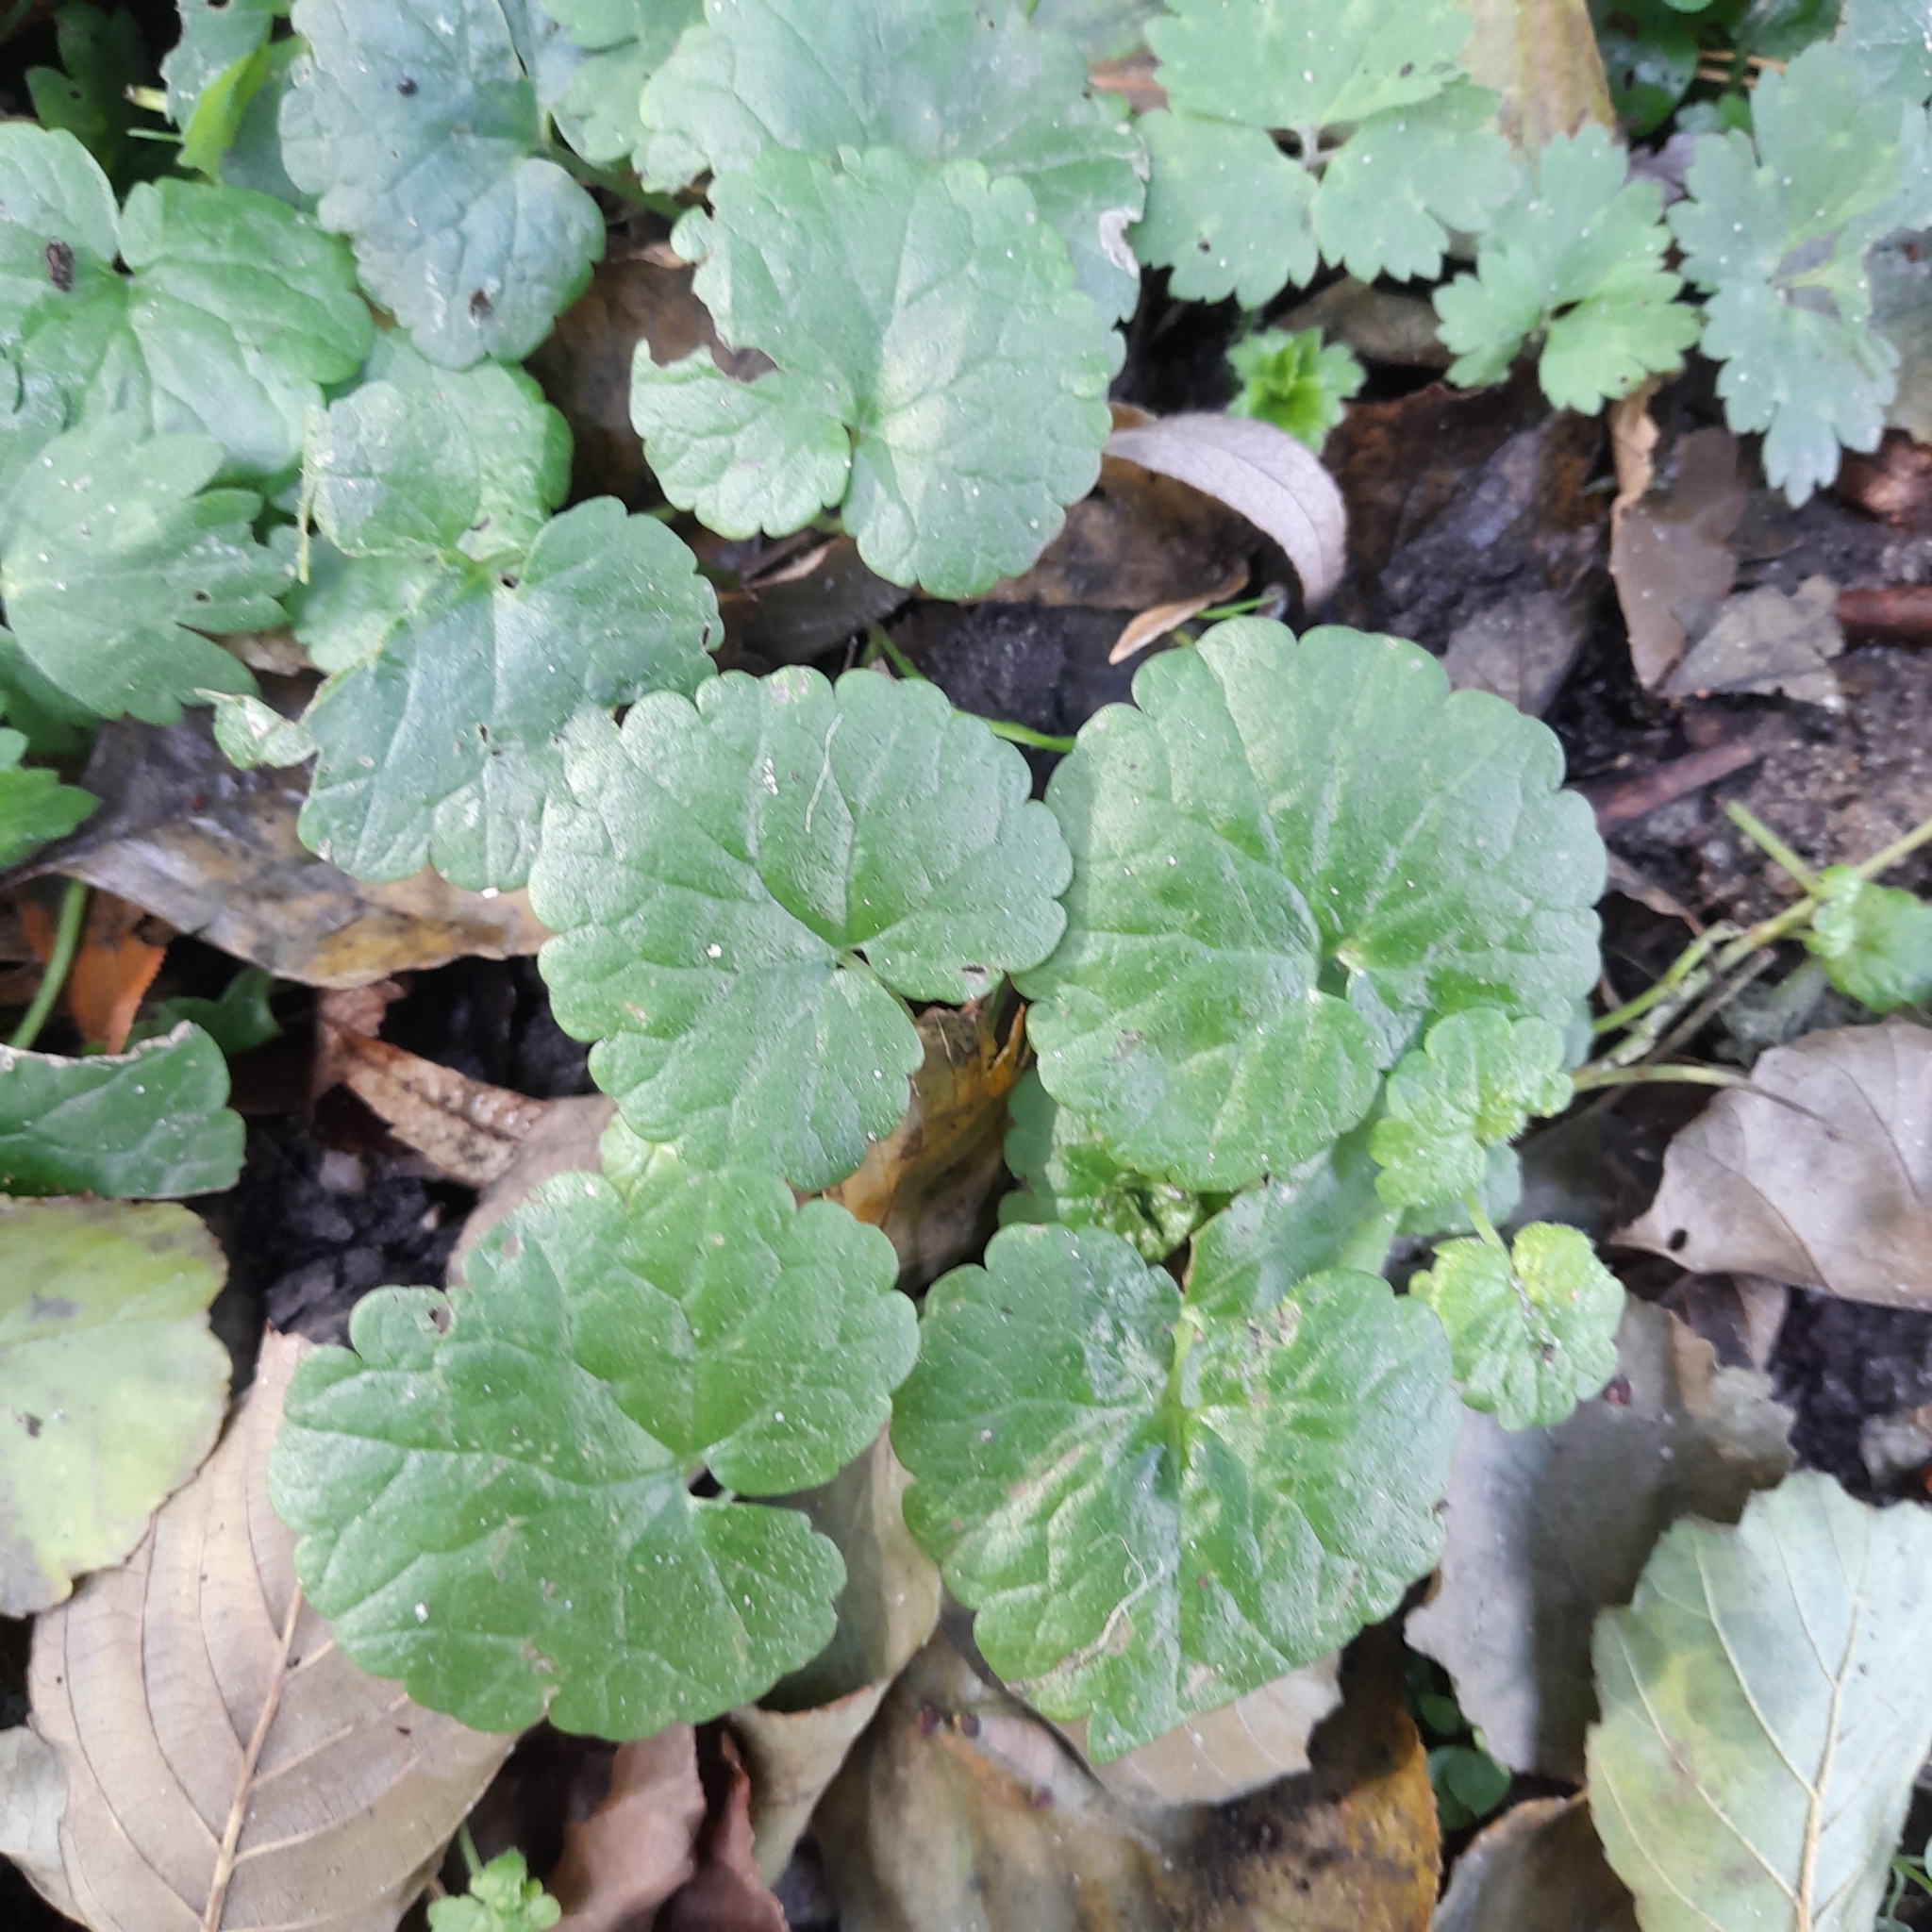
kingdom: Plantae
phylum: Tracheophyta
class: Magnoliopsida
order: Lamiales
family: Lamiaceae
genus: Glechoma
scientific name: Glechoma hederacea
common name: Ground ivy
